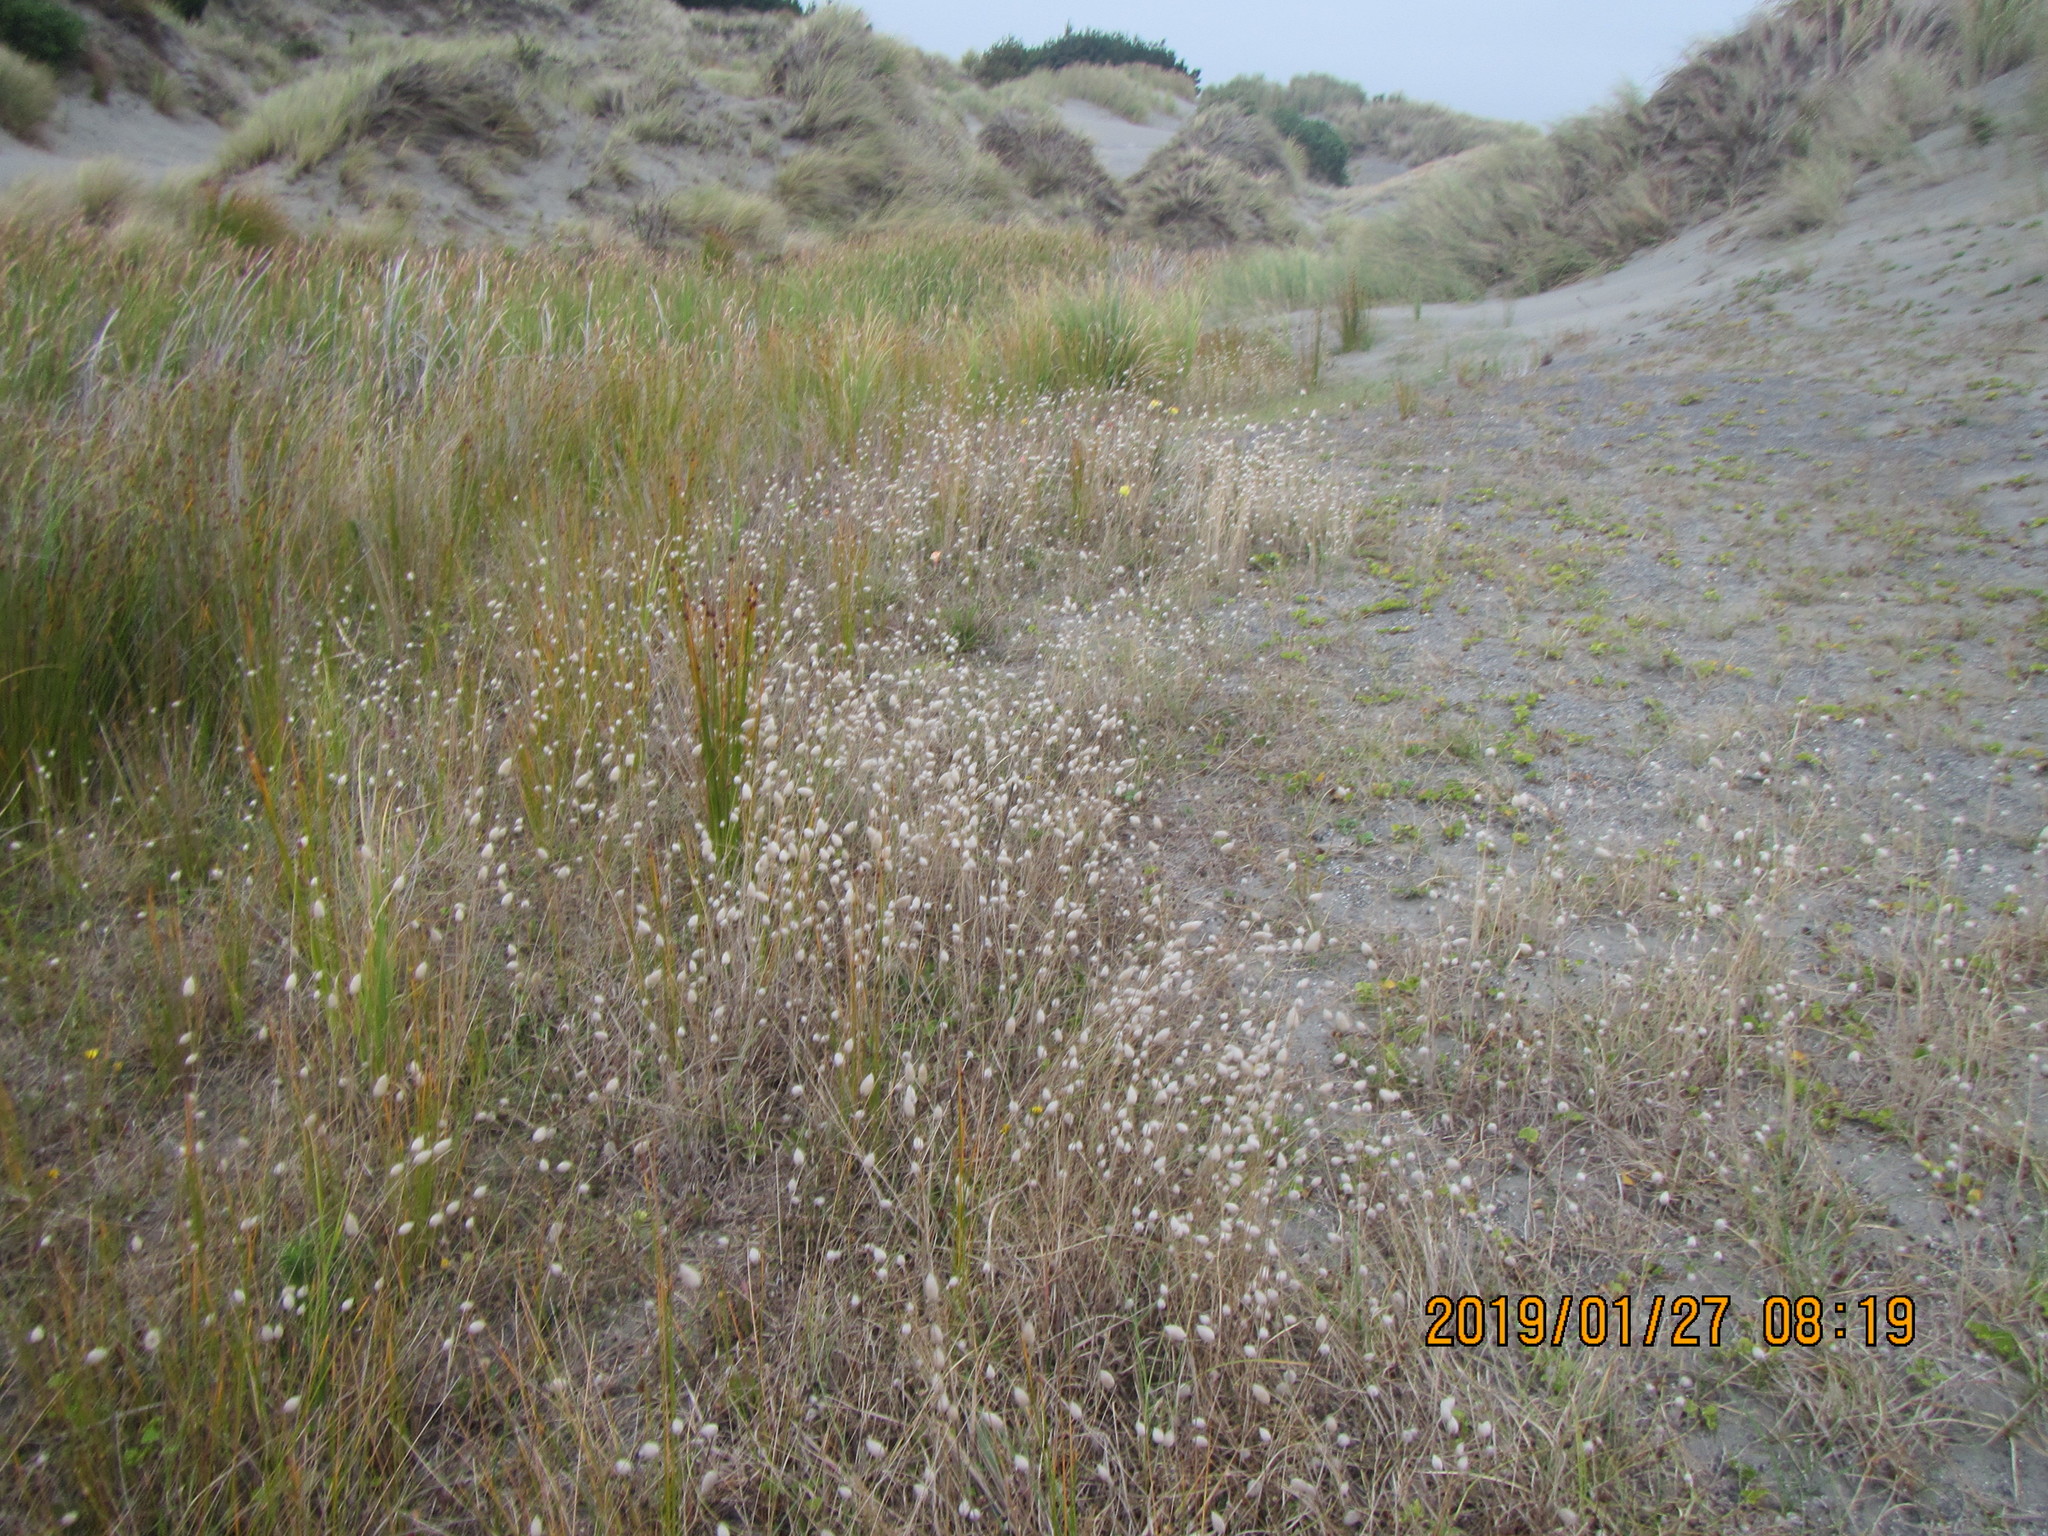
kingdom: Plantae
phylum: Tracheophyta
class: Liliopsida
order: Poales
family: Poaceae
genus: Lagurus
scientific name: Lagurus ovatus
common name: Hare's-tail
